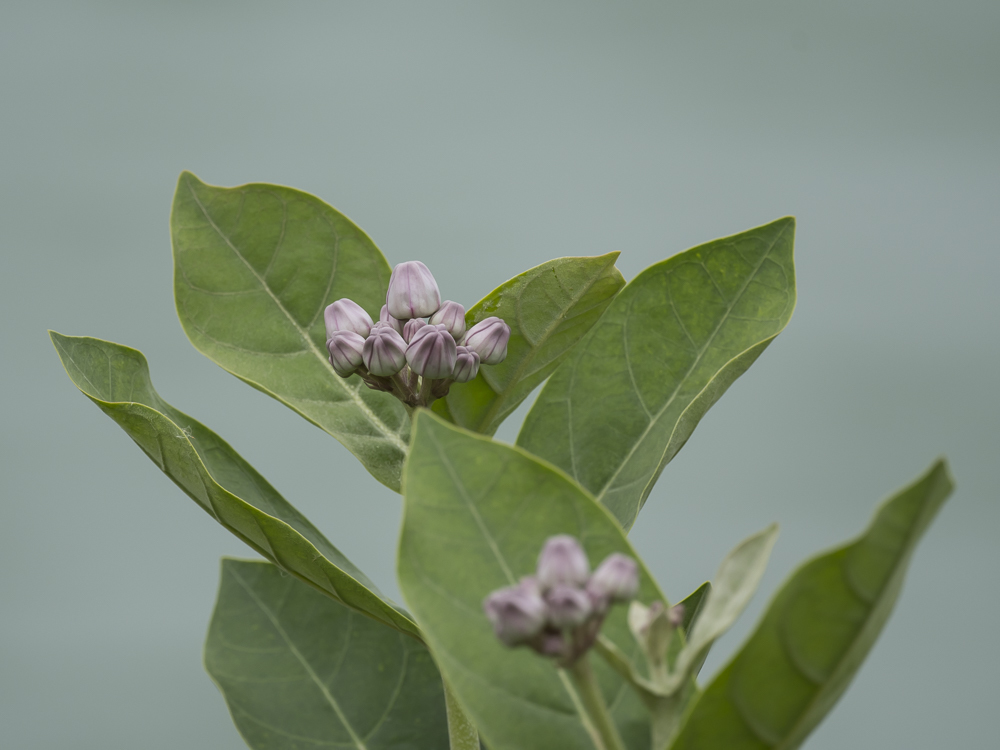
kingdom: Plantae
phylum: Tracheophyta
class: Magnoliopsida
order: Gentianales
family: Apocynaceae
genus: Calotropis
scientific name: Calotropis gigantea
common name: Crown flower
